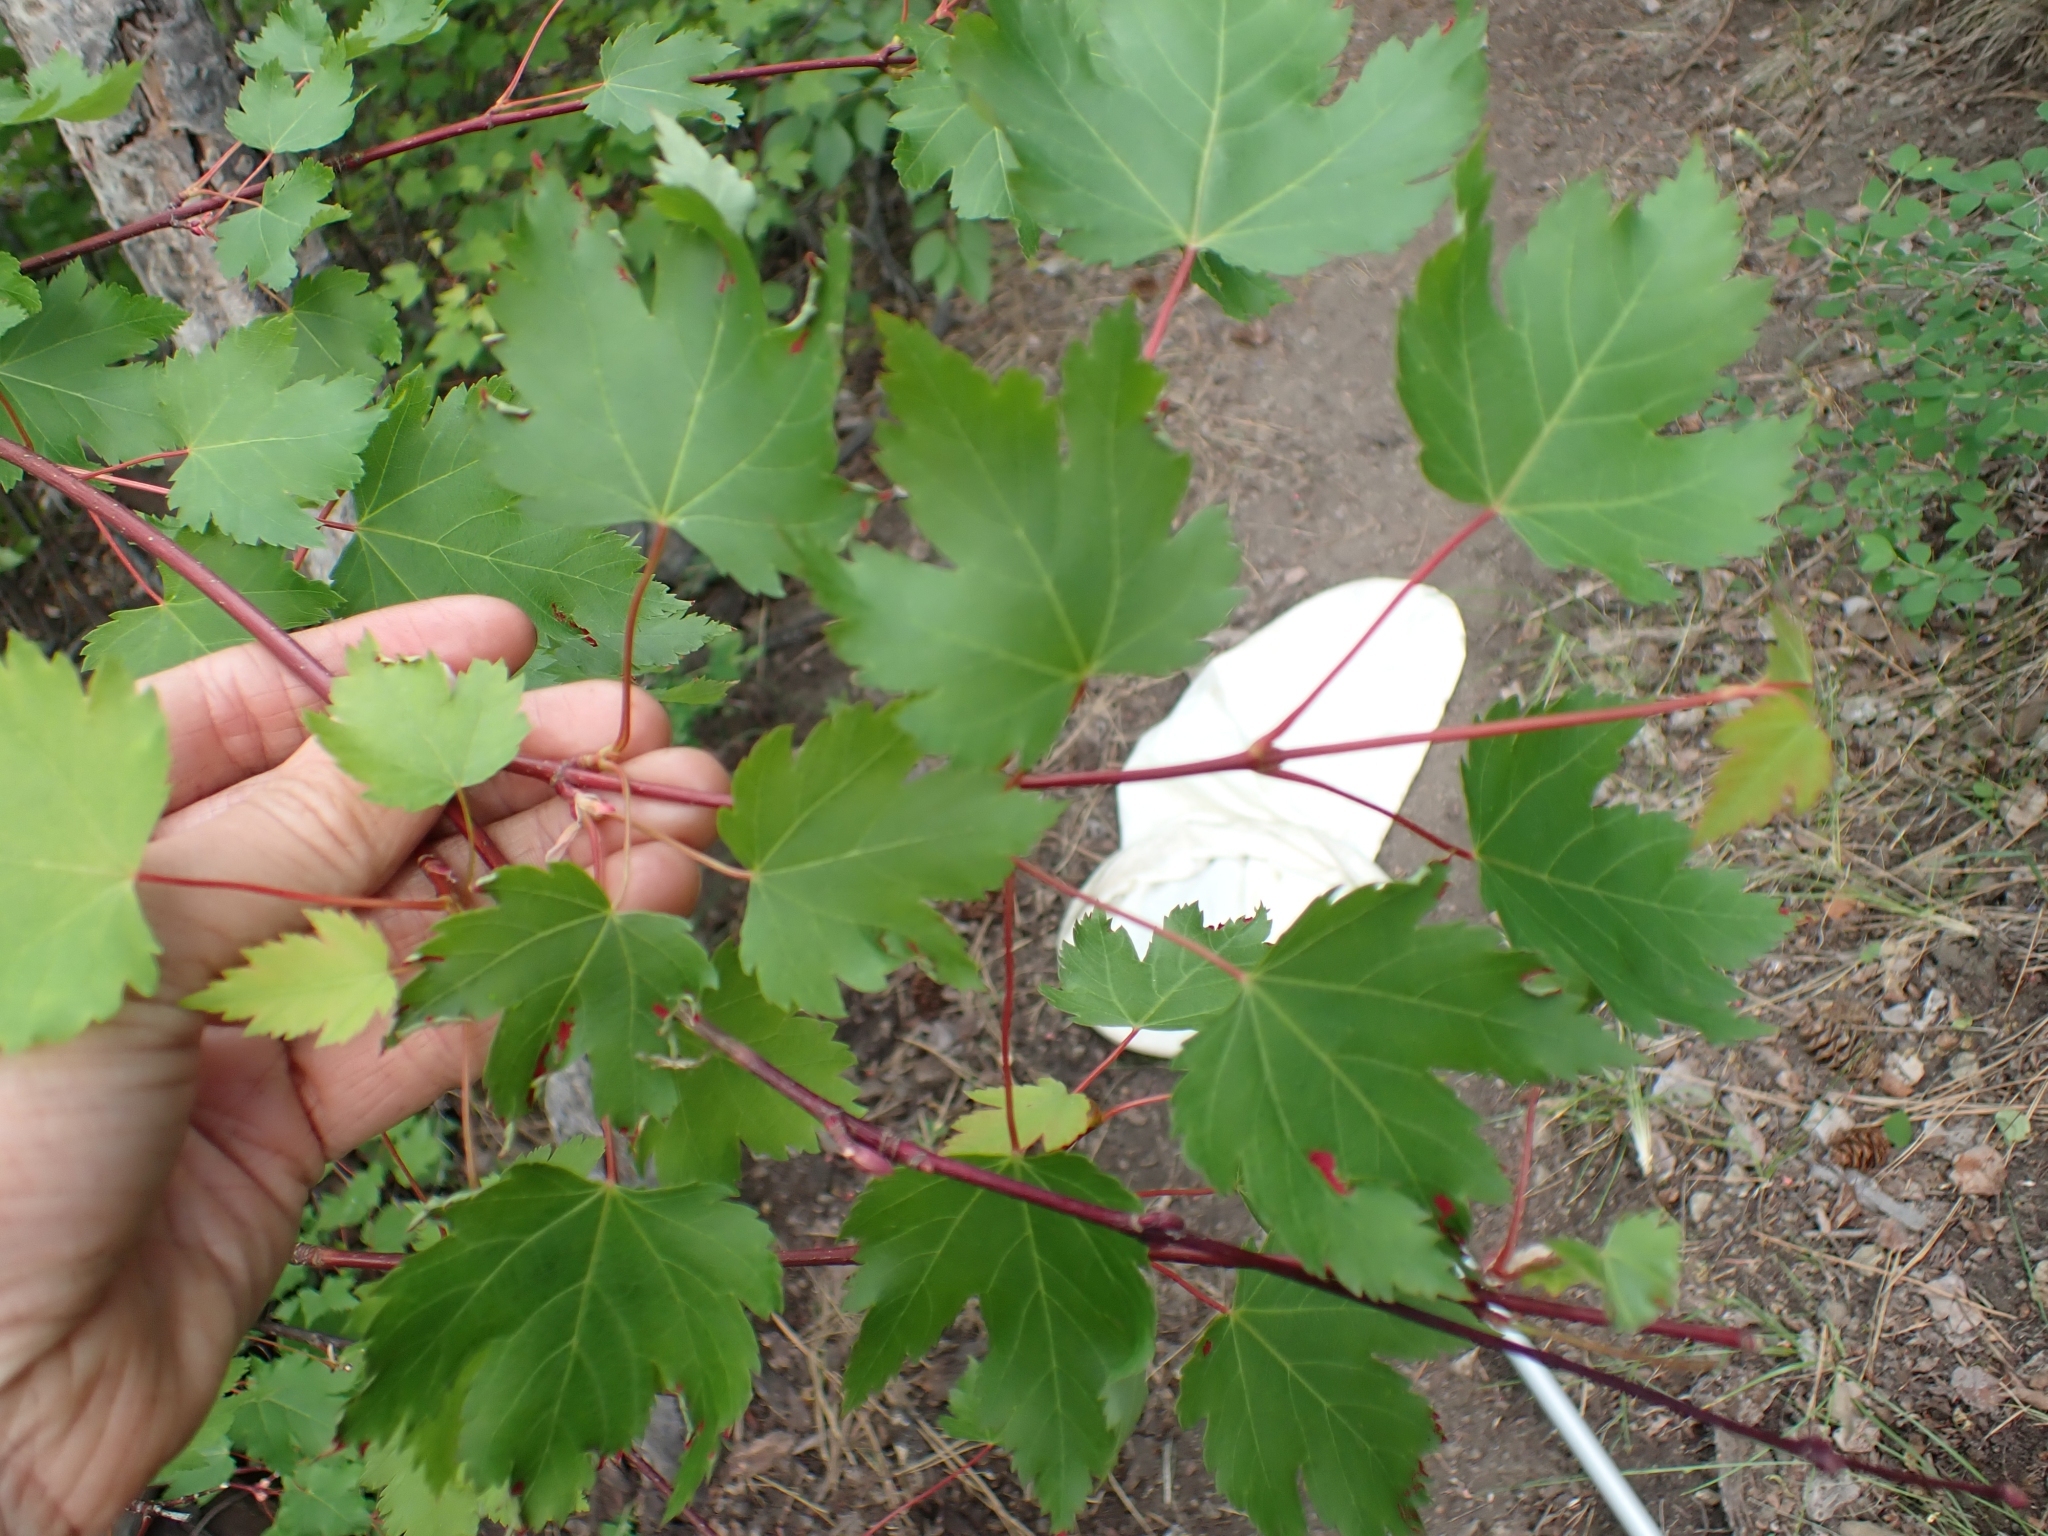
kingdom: Plantae
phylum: Tracheophyta
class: Magnoliopsida
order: Sapindales
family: Sapindaceae
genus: Acer
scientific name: Acer glabrum
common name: Rocky mountain maple
